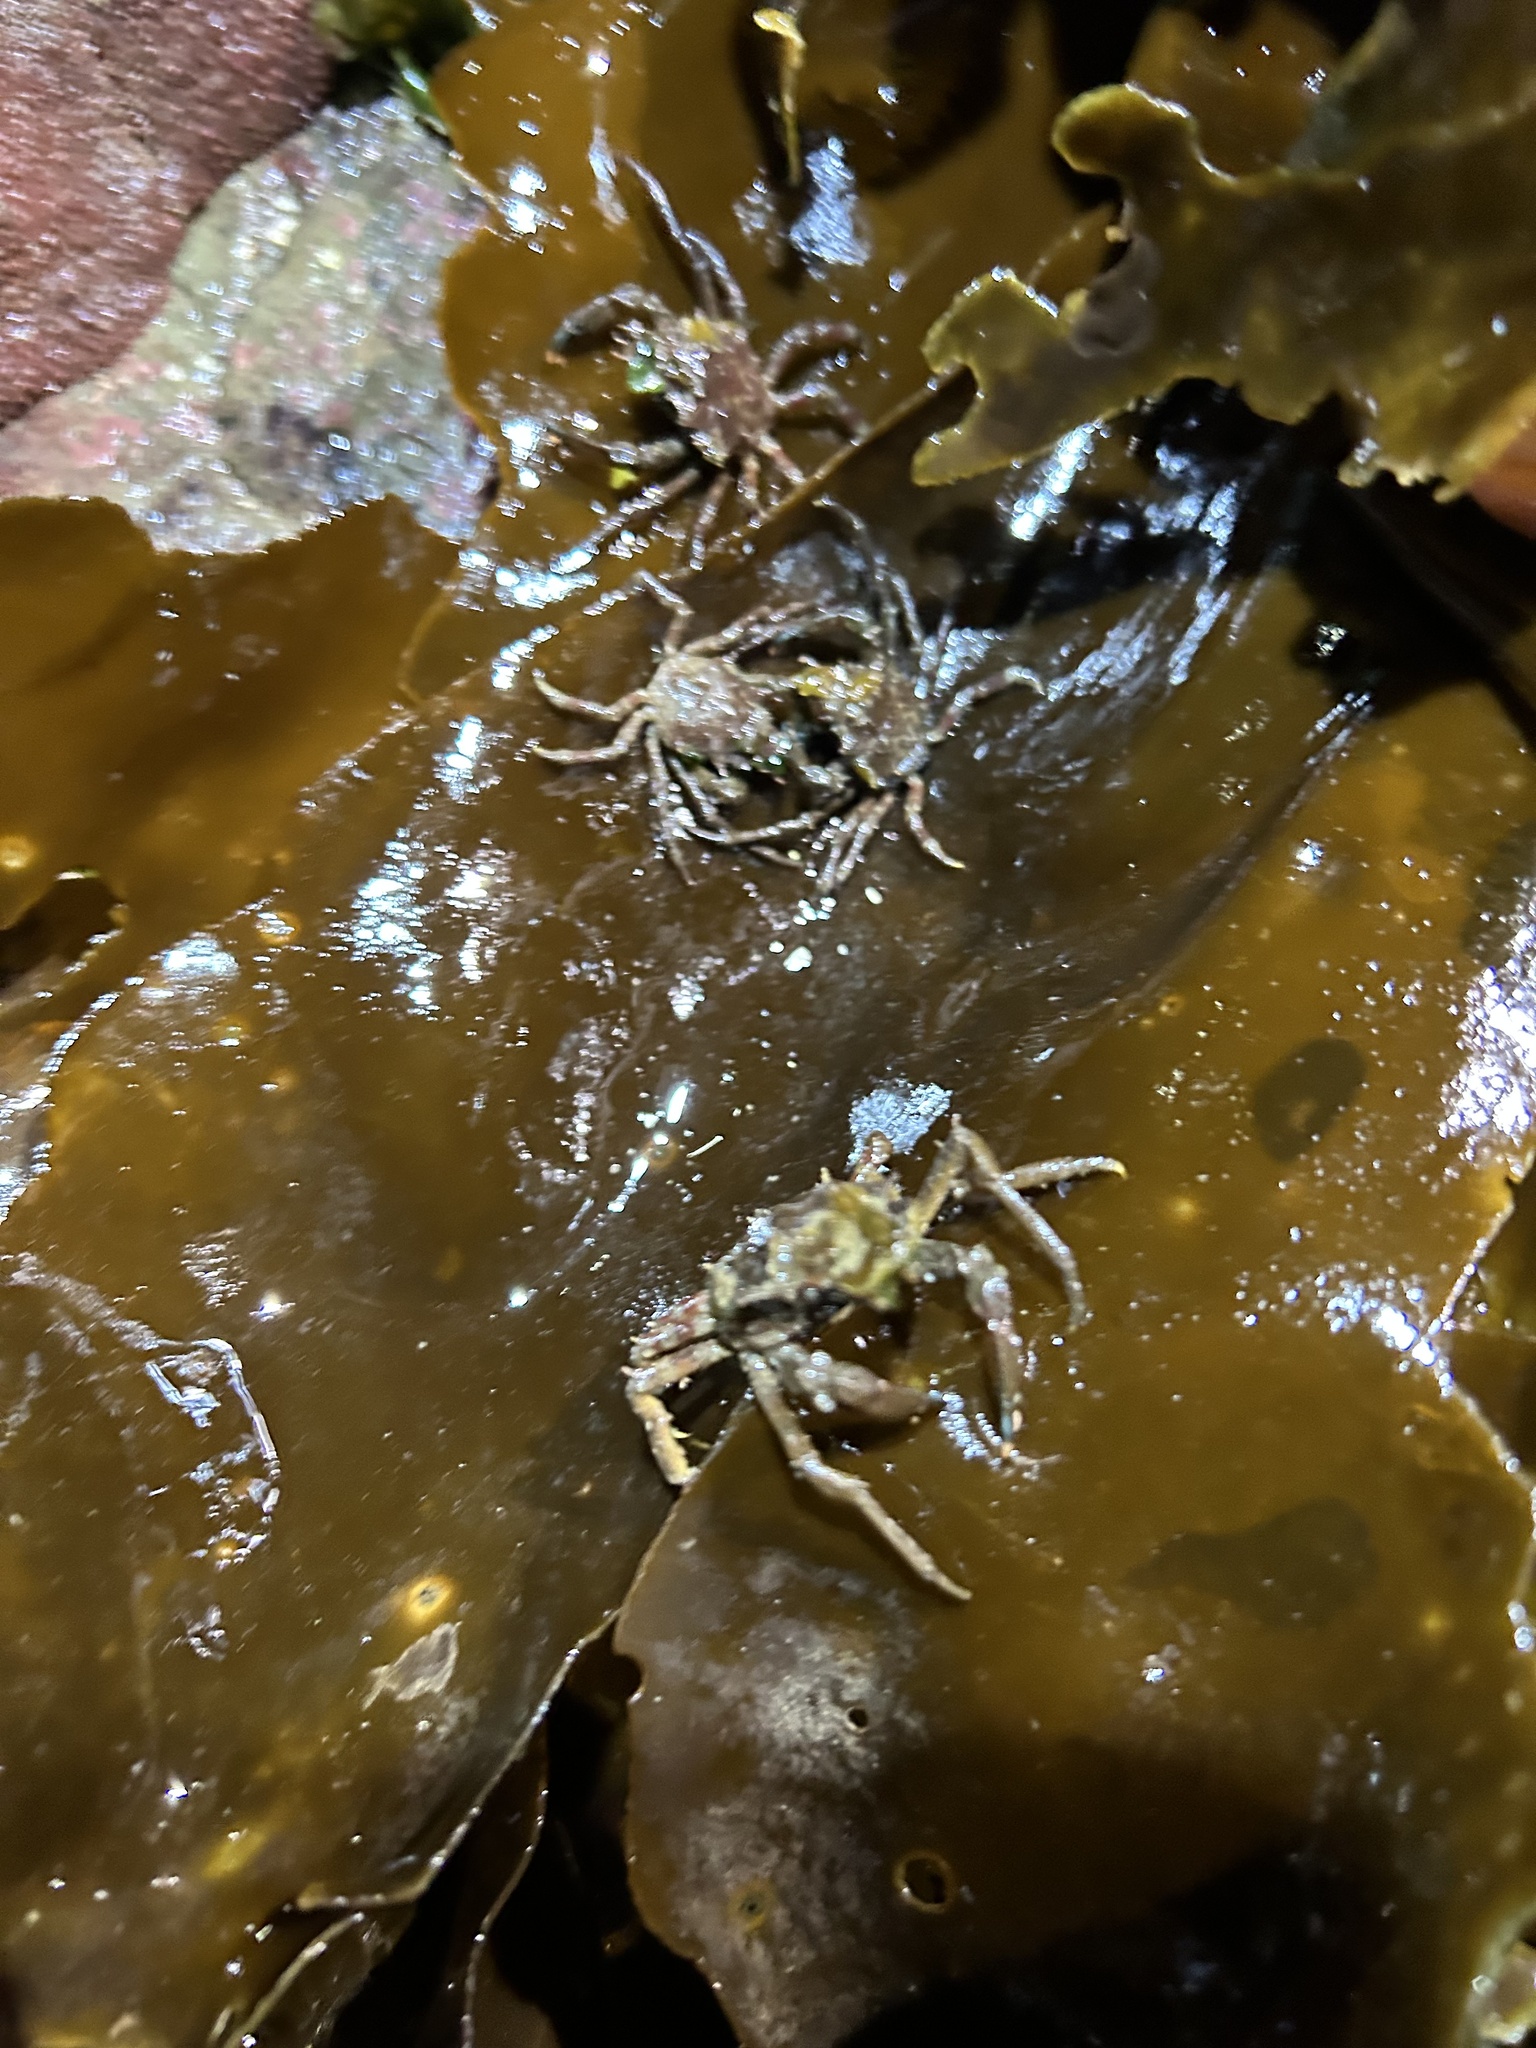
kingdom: Animalia
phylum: Arthropoda
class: Malacostraca
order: Decapoda
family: Epialtidae
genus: Pugettia
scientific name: Pugettia gracilis
